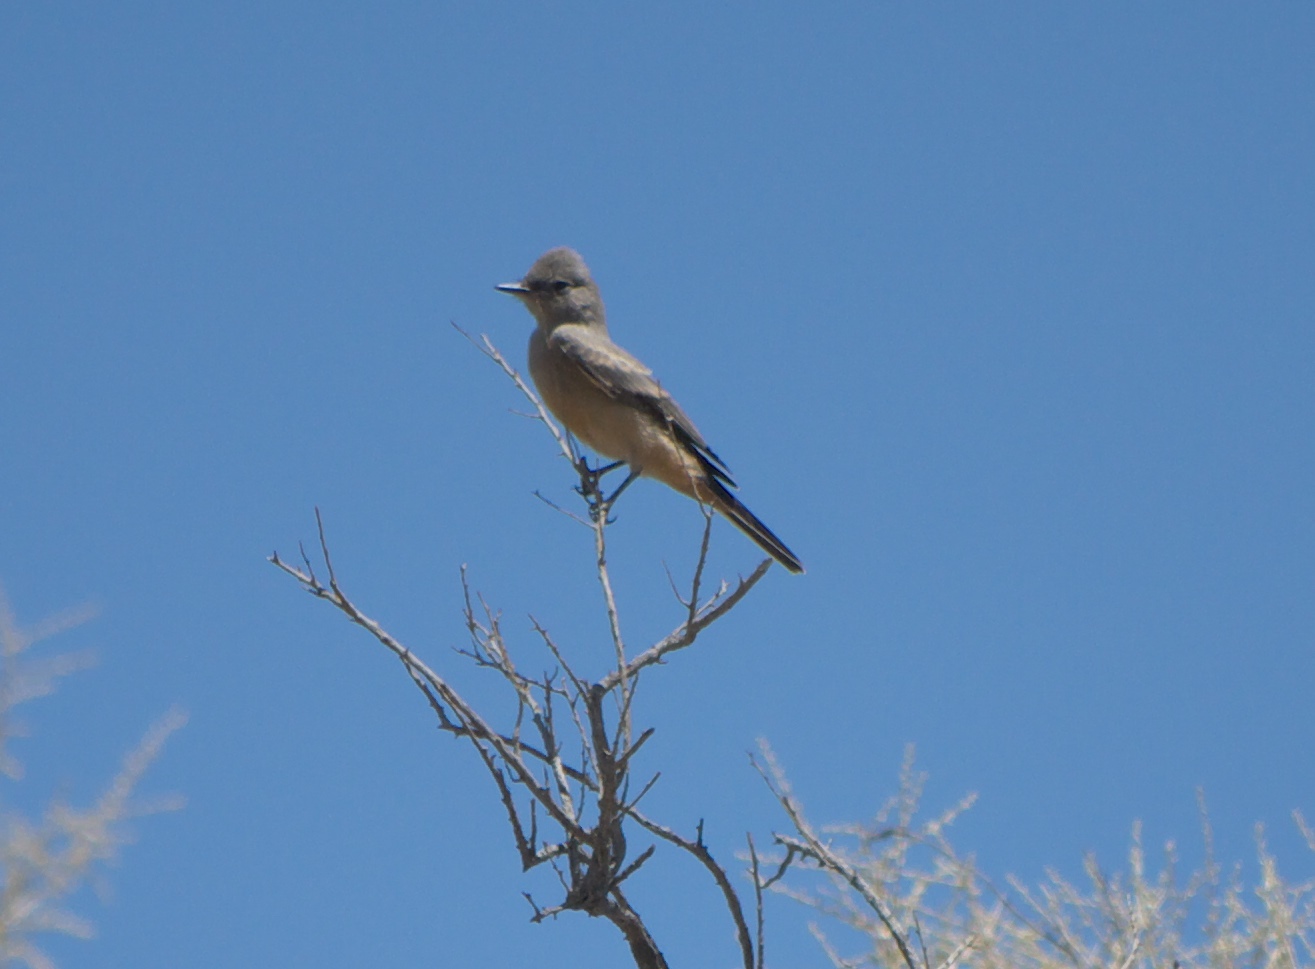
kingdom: Animalia
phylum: Chordata
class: Aves
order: Passeriformes
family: Tyrannidae
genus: Sayornis
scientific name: Sayornis saya
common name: Say's phoebe
